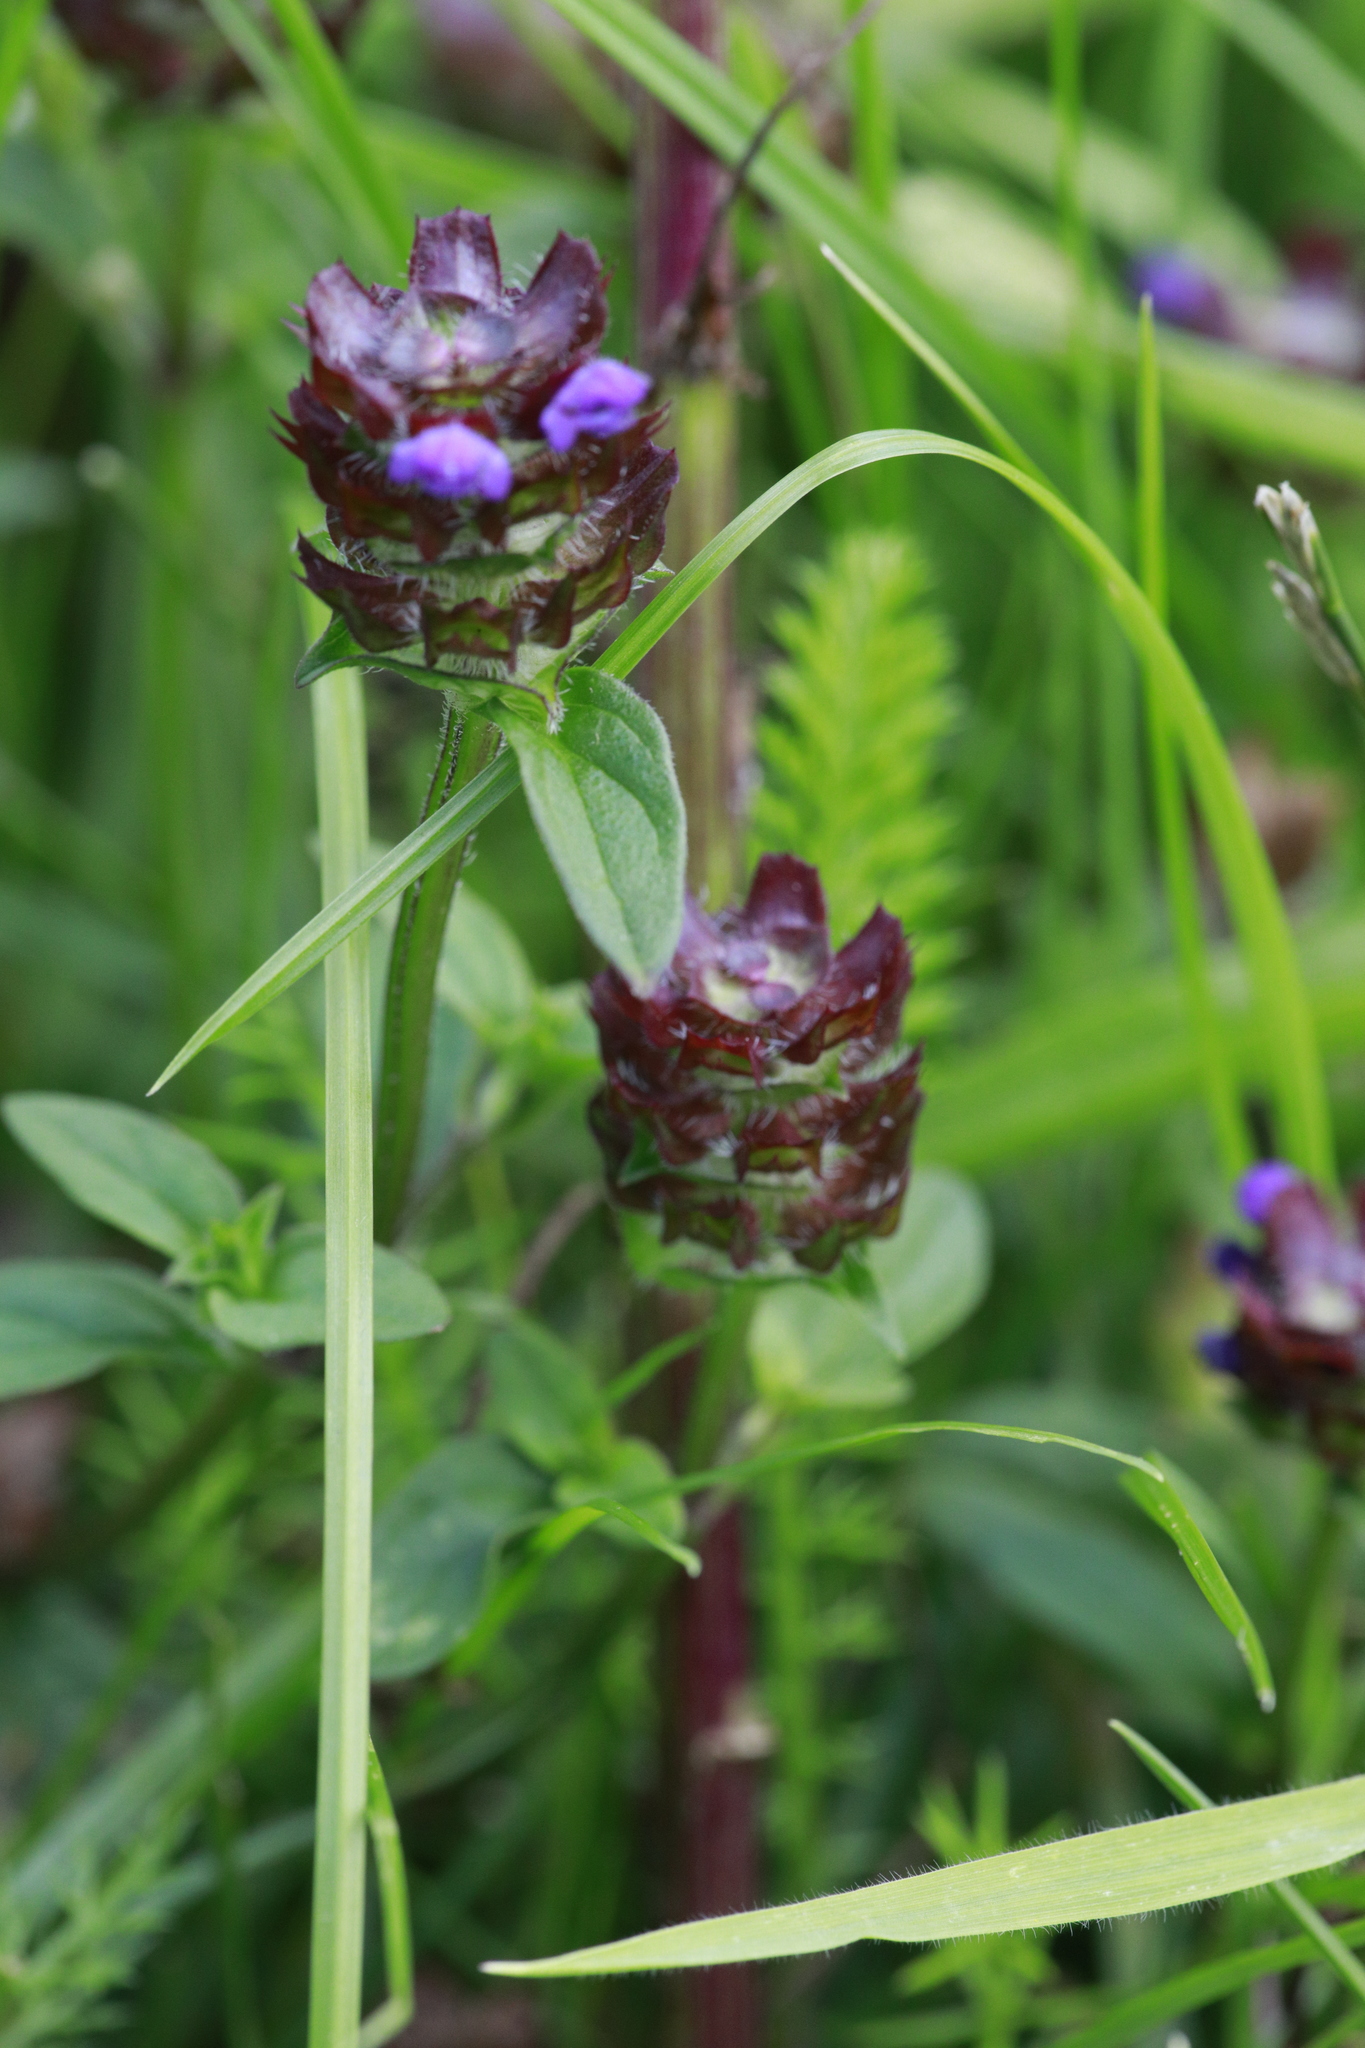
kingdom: Plantae
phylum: Tracheophyta
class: Magnoliopsida
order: Lamiales
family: Lamiaceae
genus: Prunella
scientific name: Prunella vulgaris
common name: Heal-all
